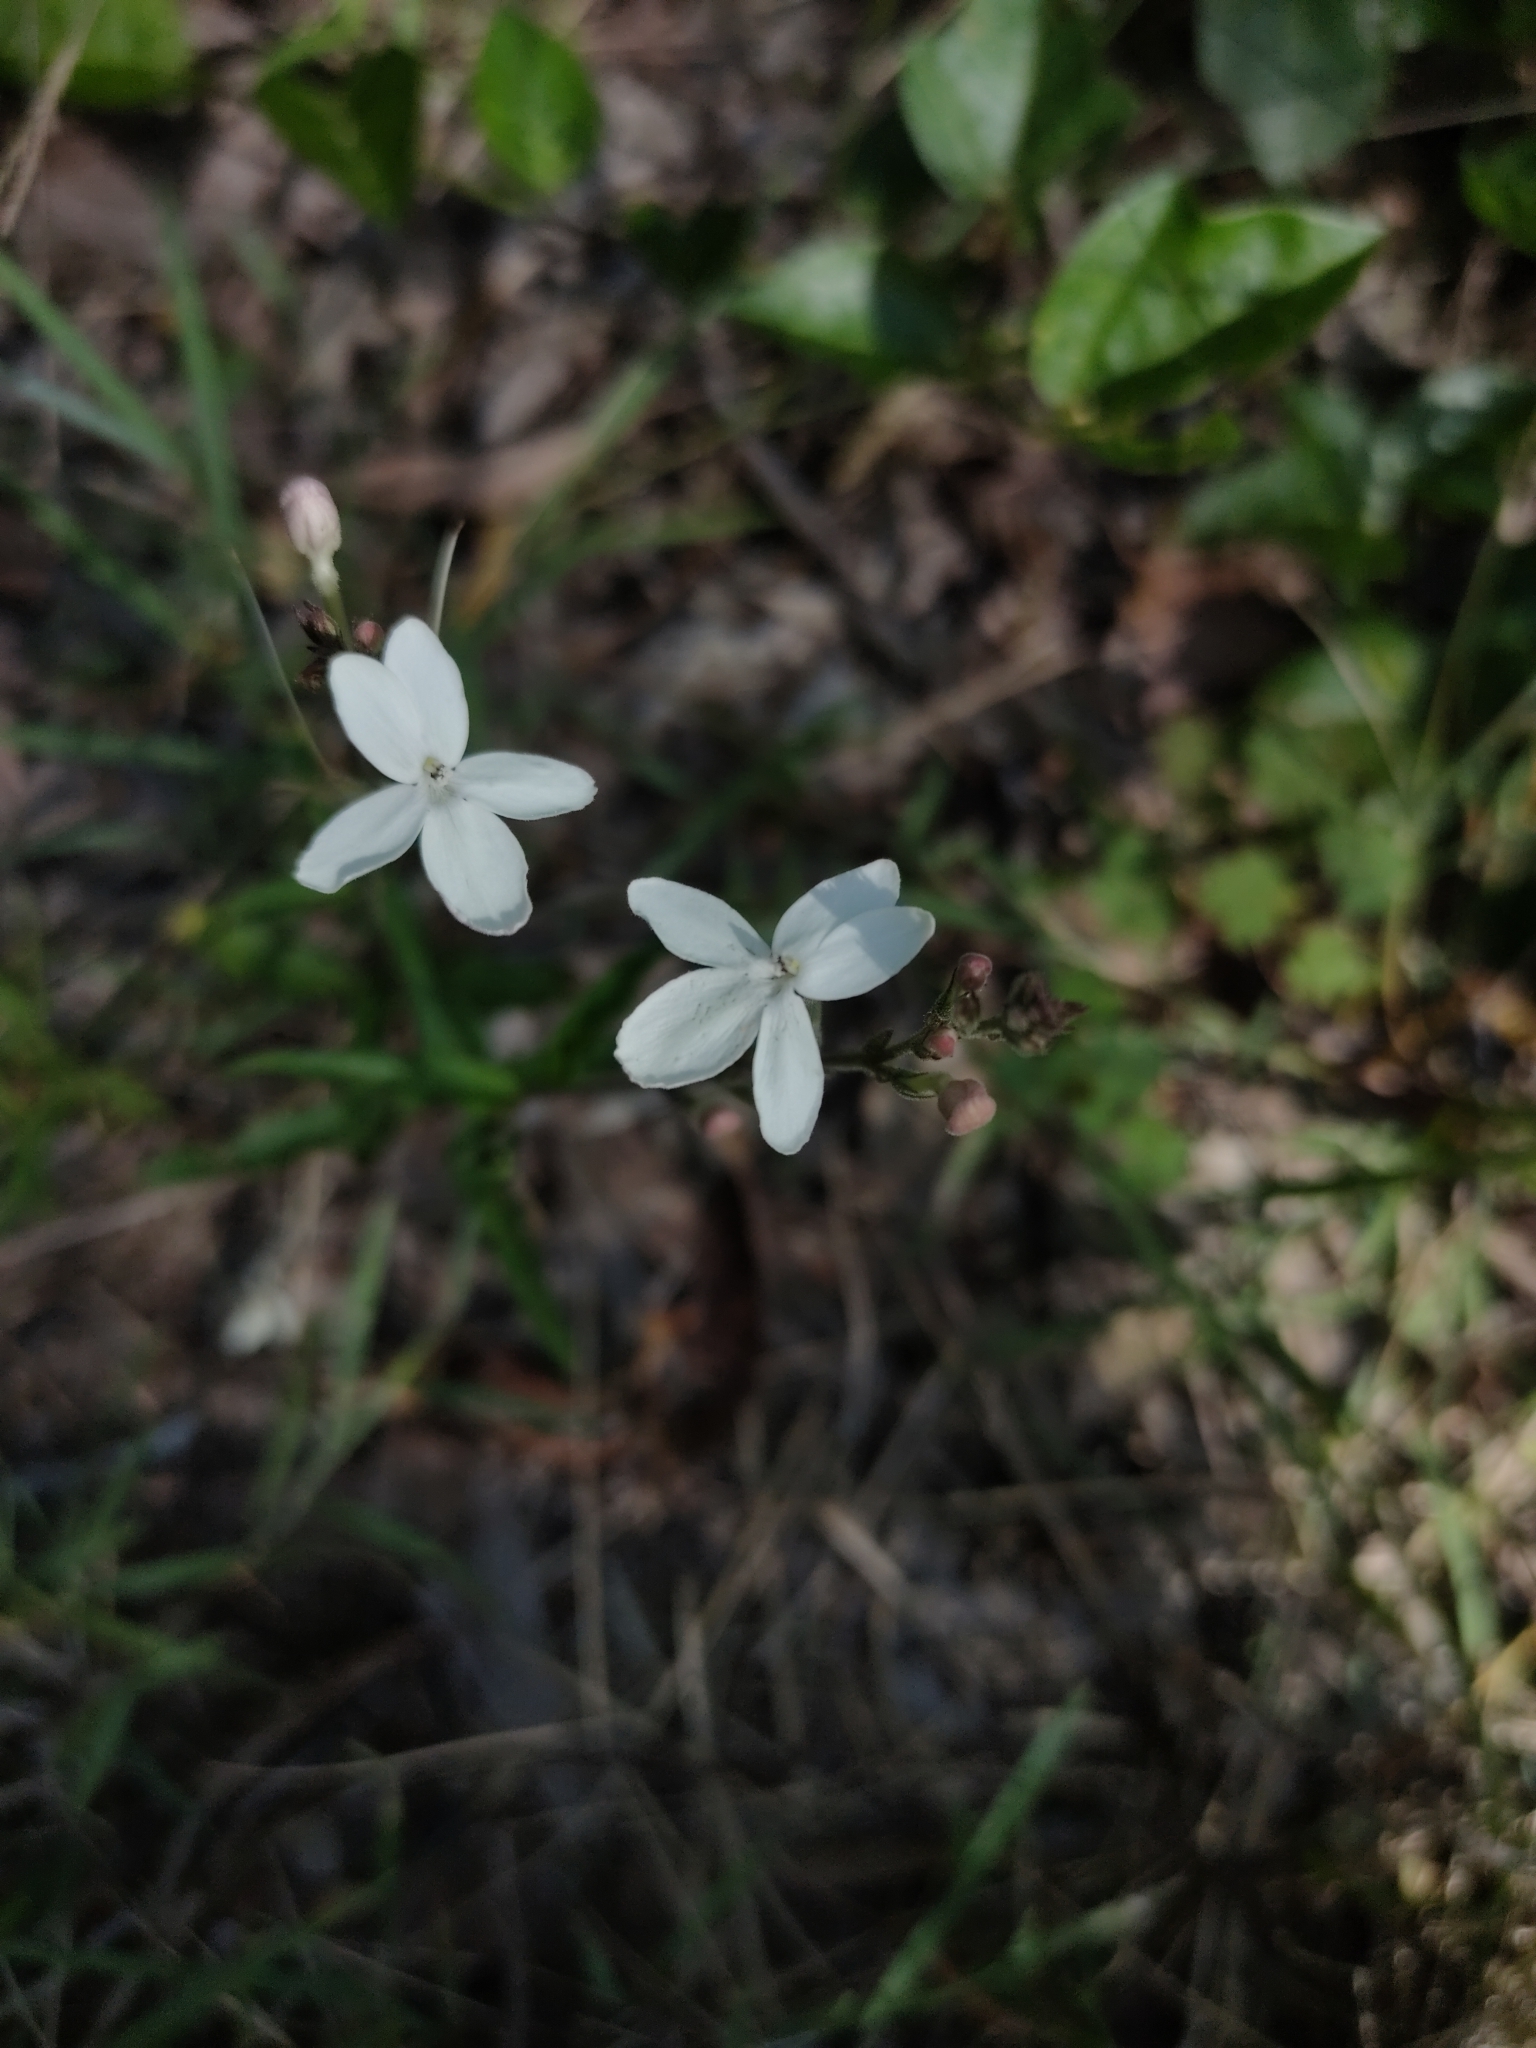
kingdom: Plantae
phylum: Tracheophyta
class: Magnoliopsida
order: Lamiales
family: Acanthaceae
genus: Pseuderanthemum
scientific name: Pseuderanthemum variabile
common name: Night and afternoon
